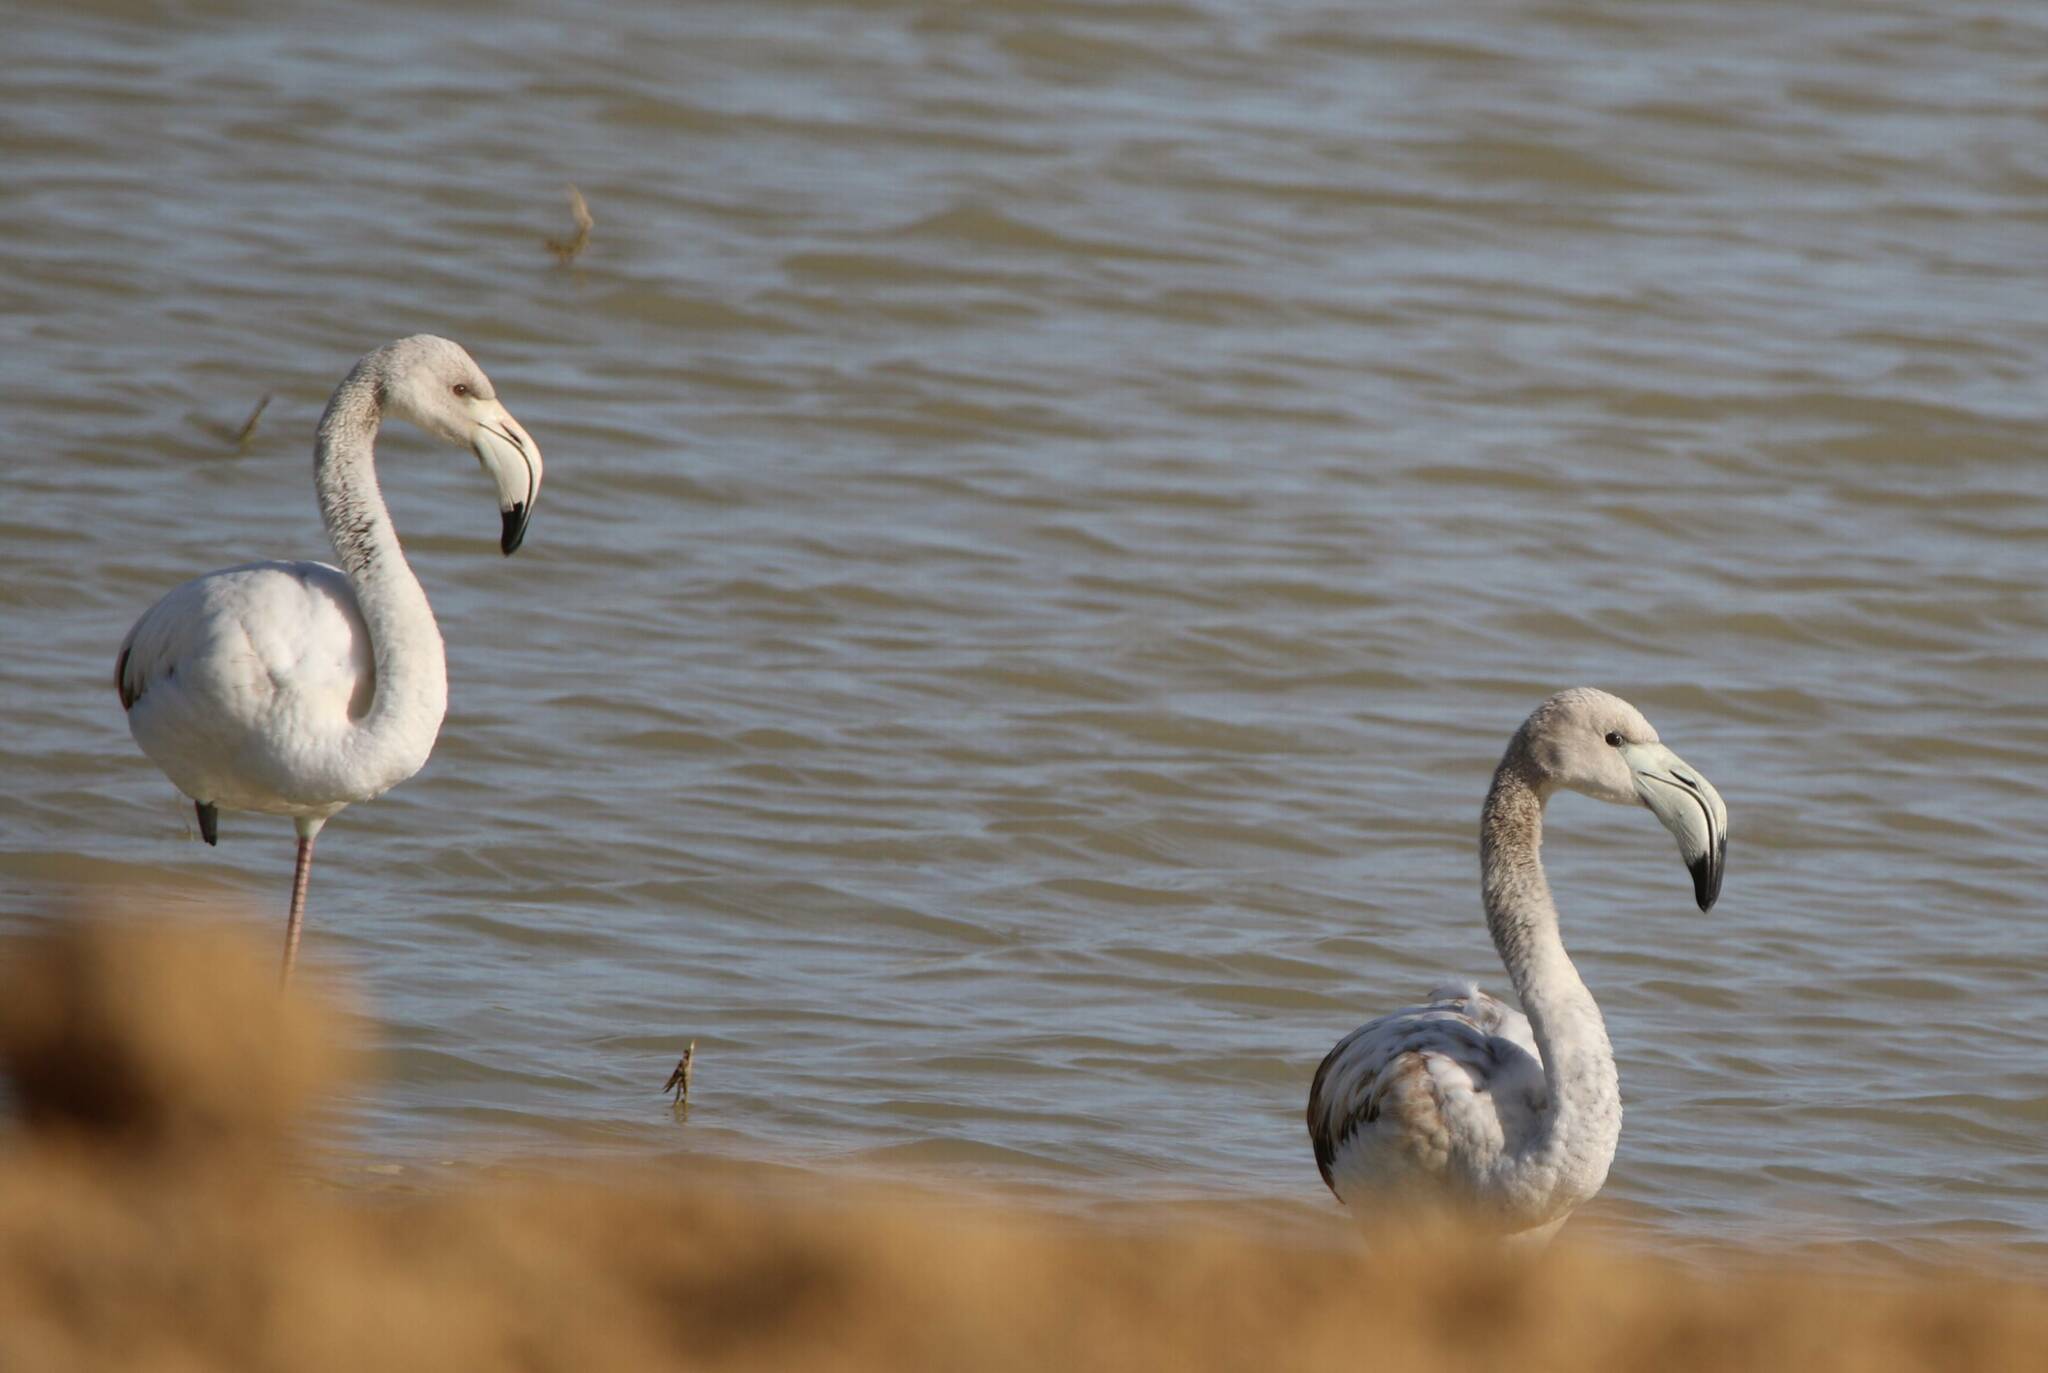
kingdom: Animalia
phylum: Chordata
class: Aves
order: Phoenicopteriformes
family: Phoenicopteridae
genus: Phoenicopterus
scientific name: Phoenicopterus roseus
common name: Greater flamingo
